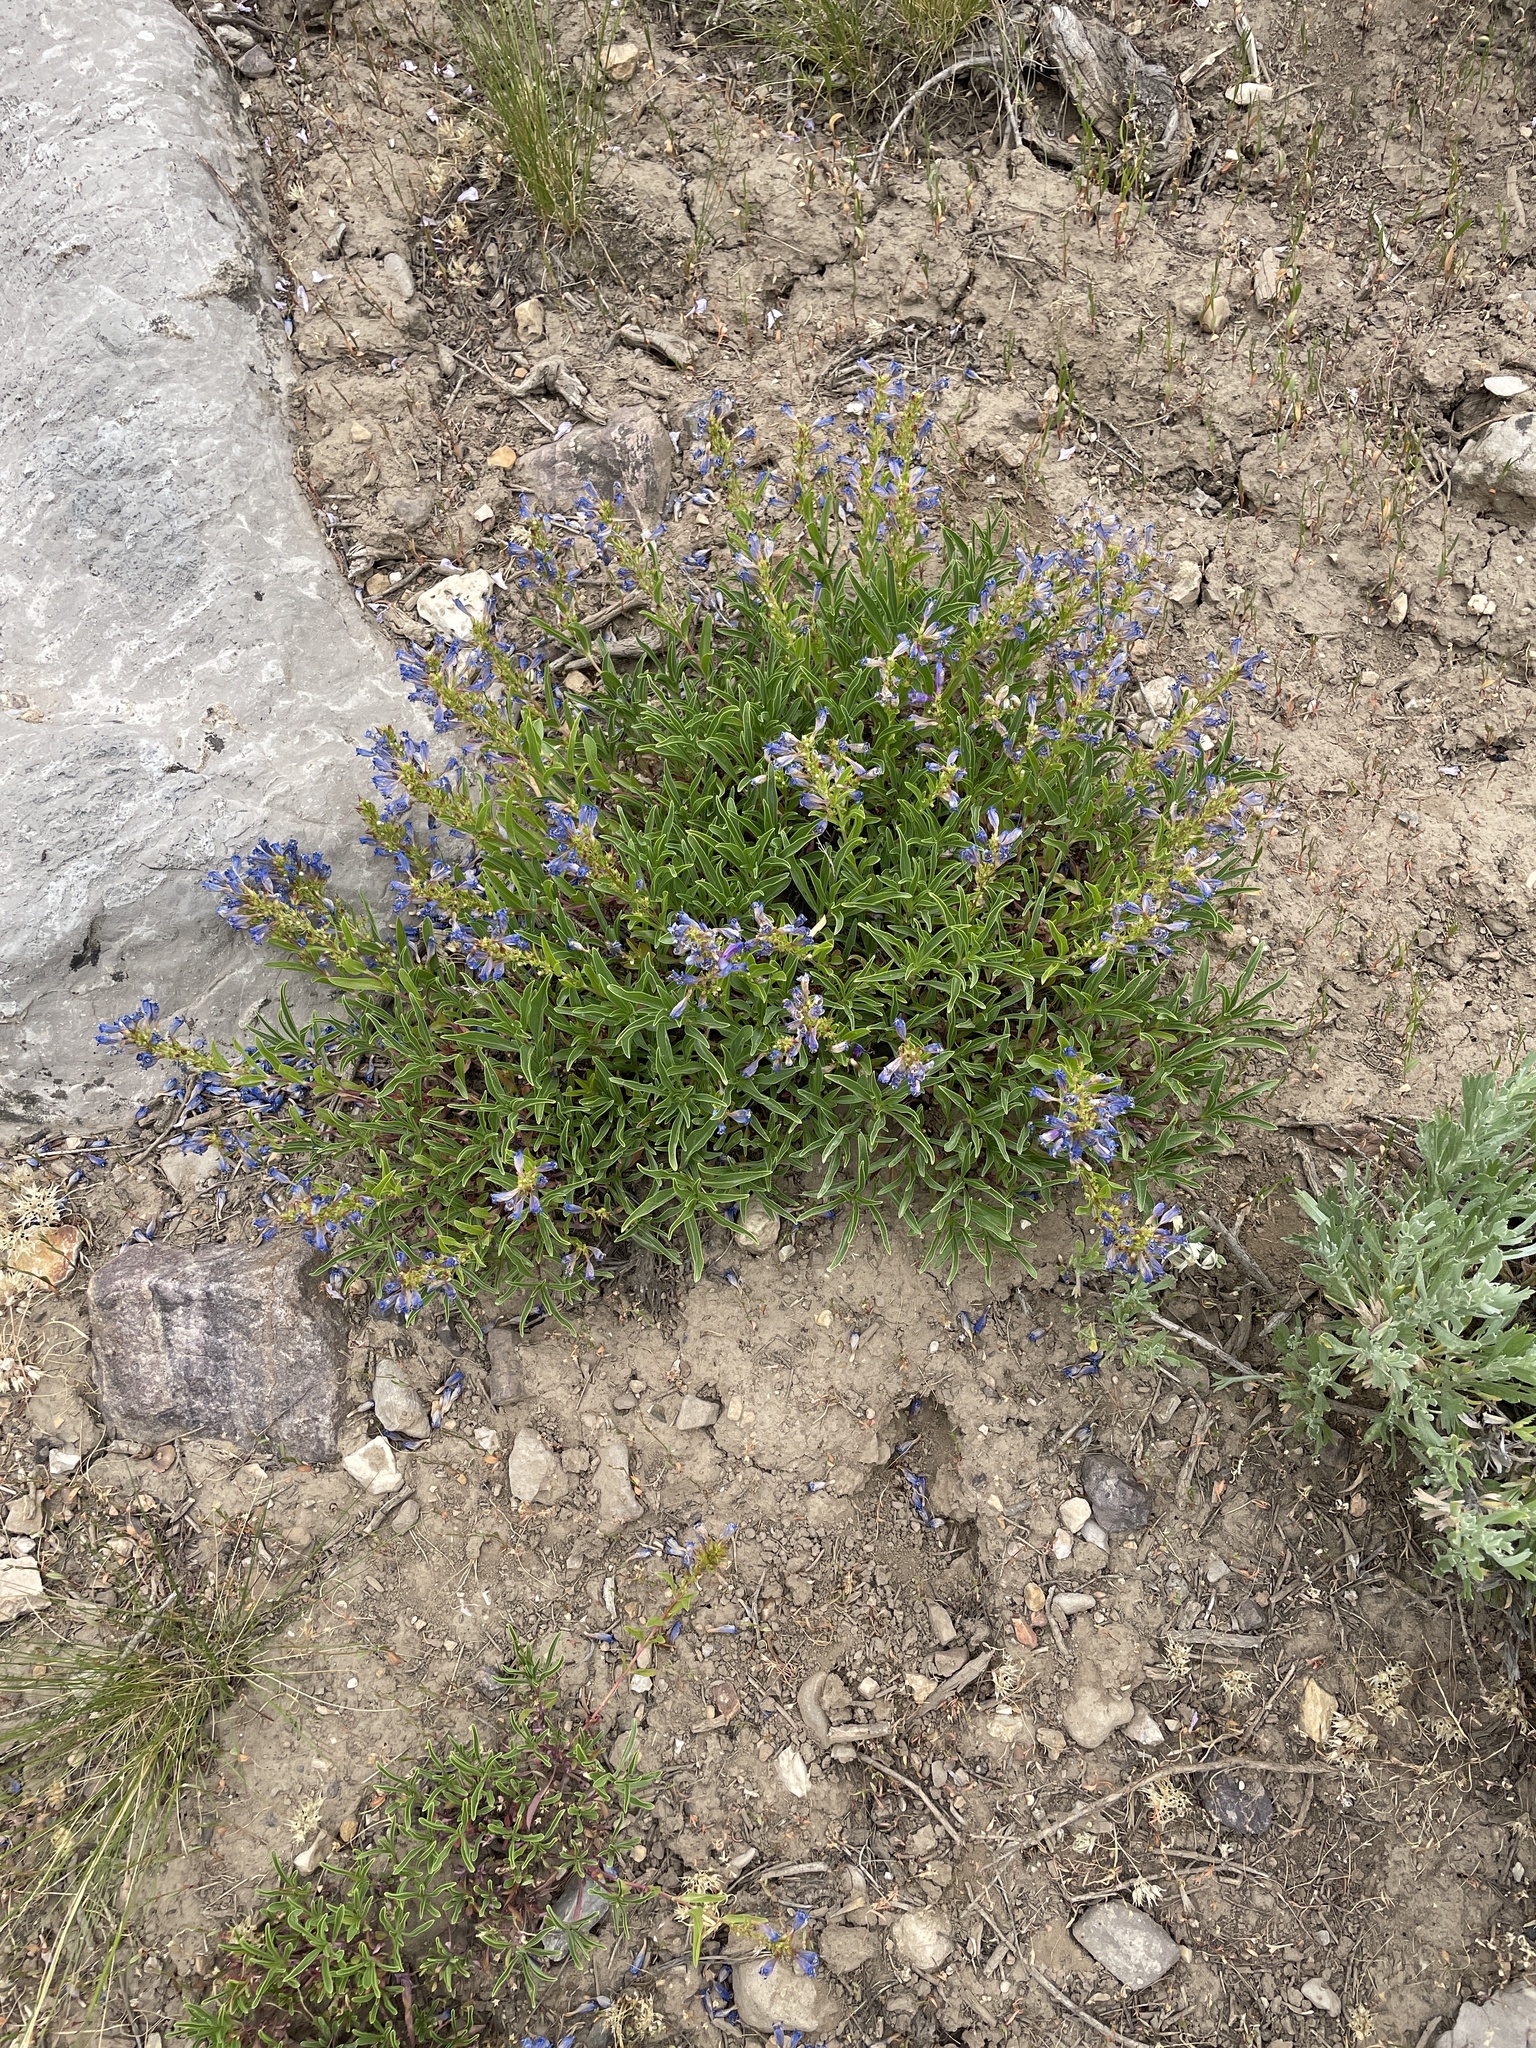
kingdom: Plantae
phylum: Tracheophyta
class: Magnoliopsida
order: Lamiales
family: Plantaginaceae
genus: Penstemon
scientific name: Penstemon leonardii
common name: Leonard's penstemon
